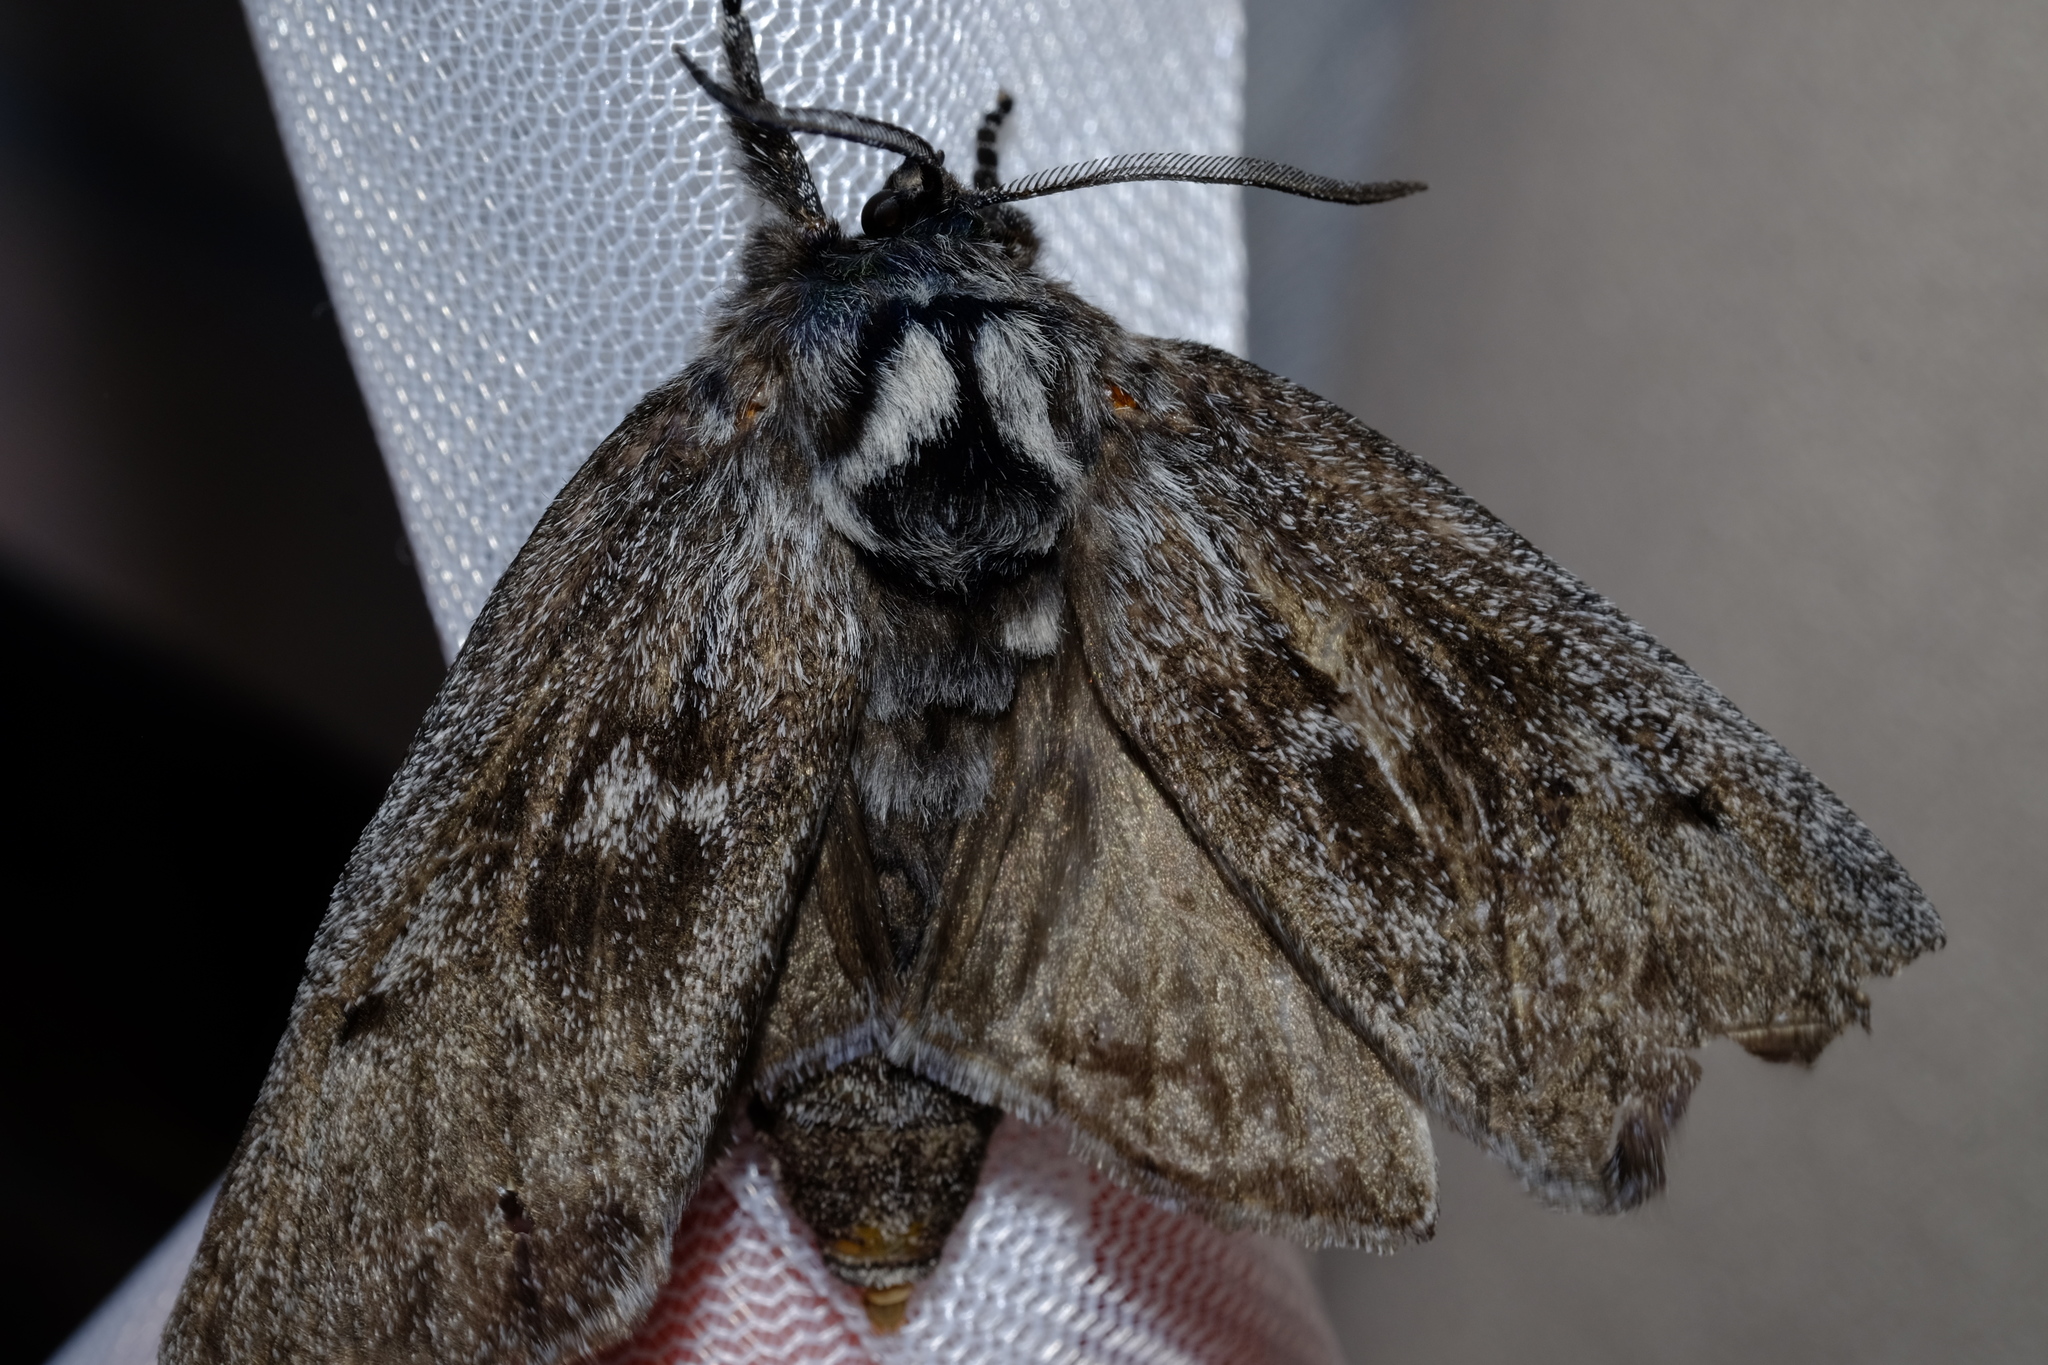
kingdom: Animalia
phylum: Arthropoda
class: Insecta
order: Lepidoptera
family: Cossidae
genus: Ptilomacra
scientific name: Ptilomacra senex
